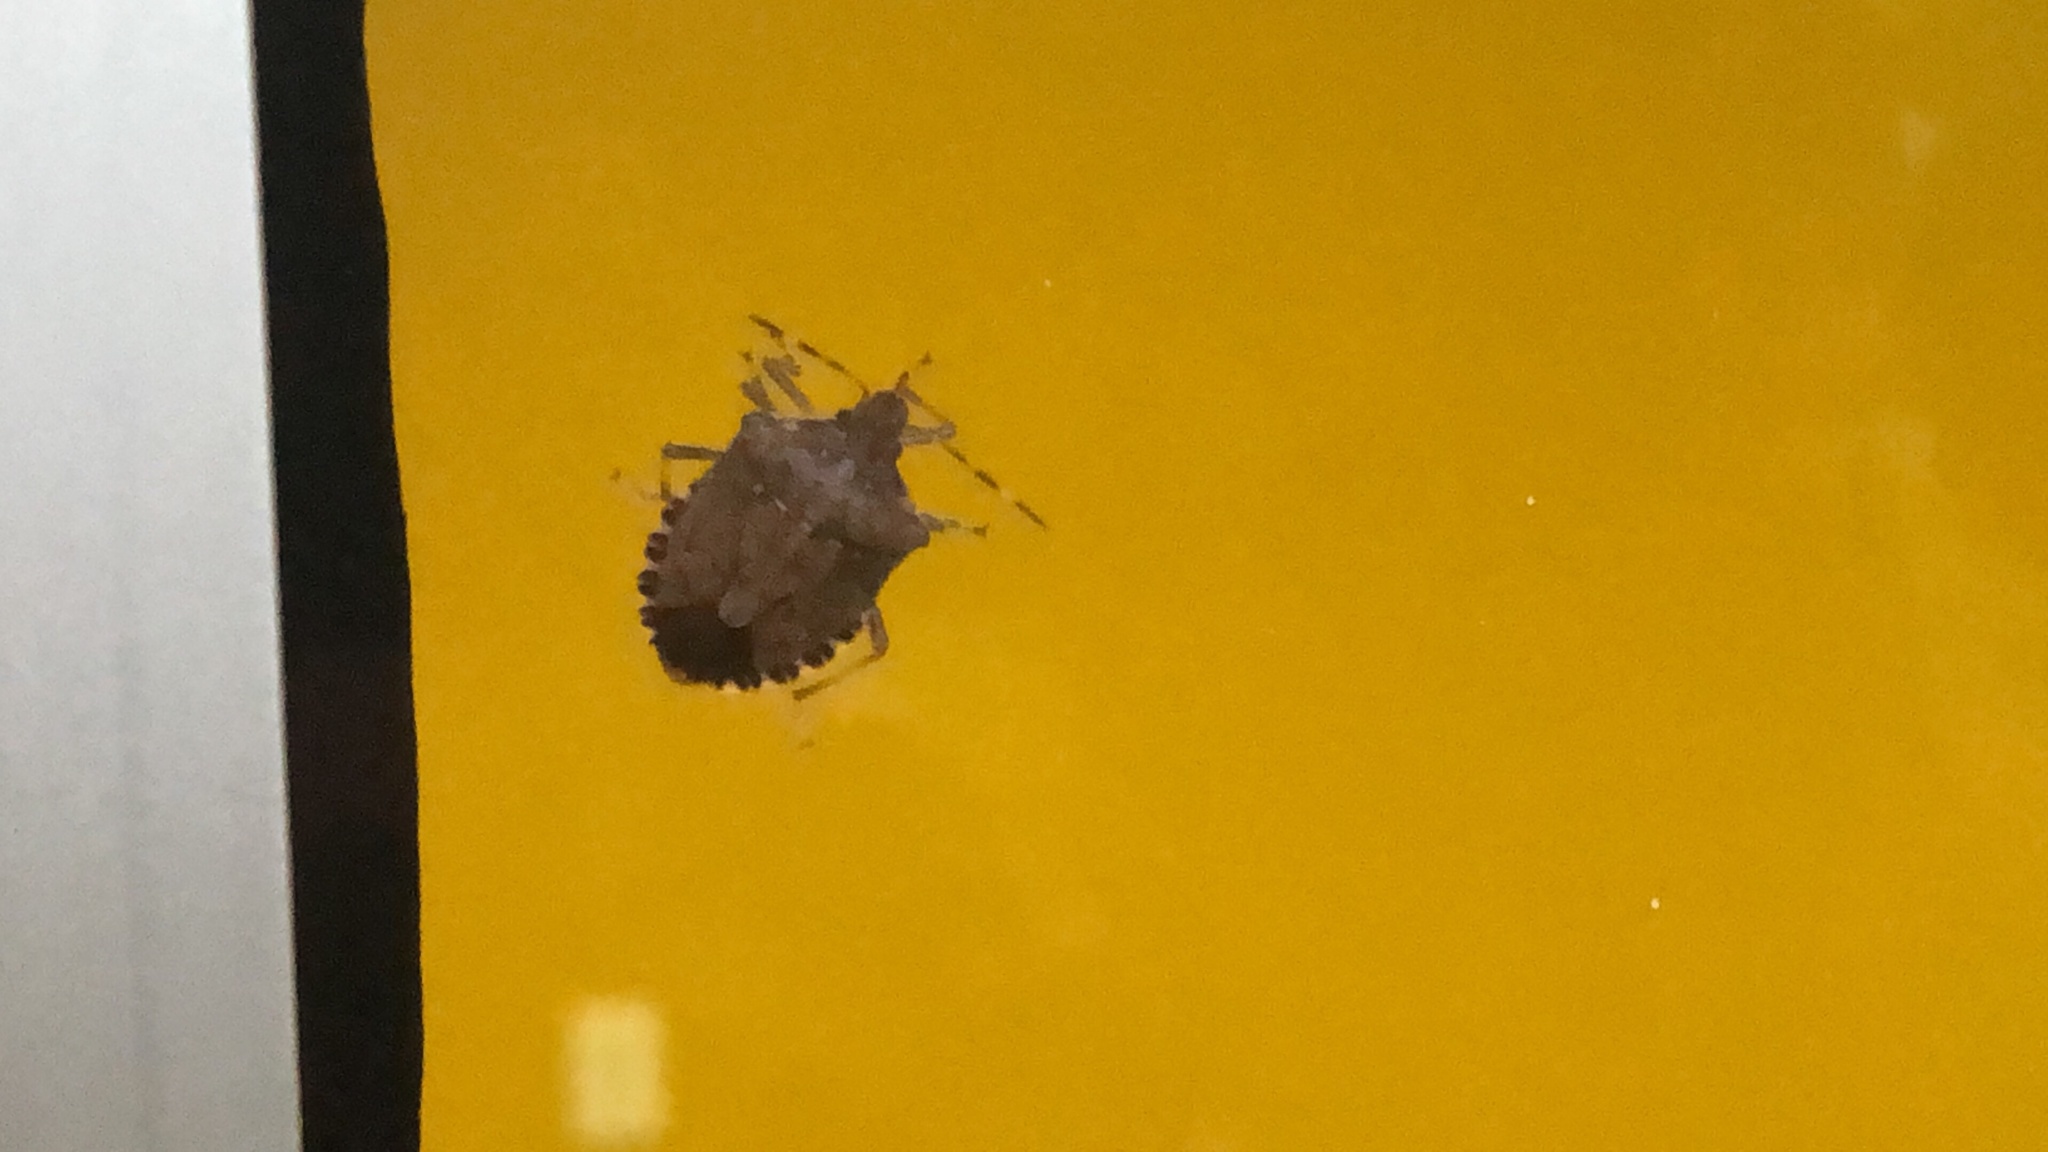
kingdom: Animalia
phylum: Arthropoda
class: Insecta
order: Hemiptera
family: Pentatomidae
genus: Halyomorpha
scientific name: Halyomorpha halys
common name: Brown marmorated stink bug
